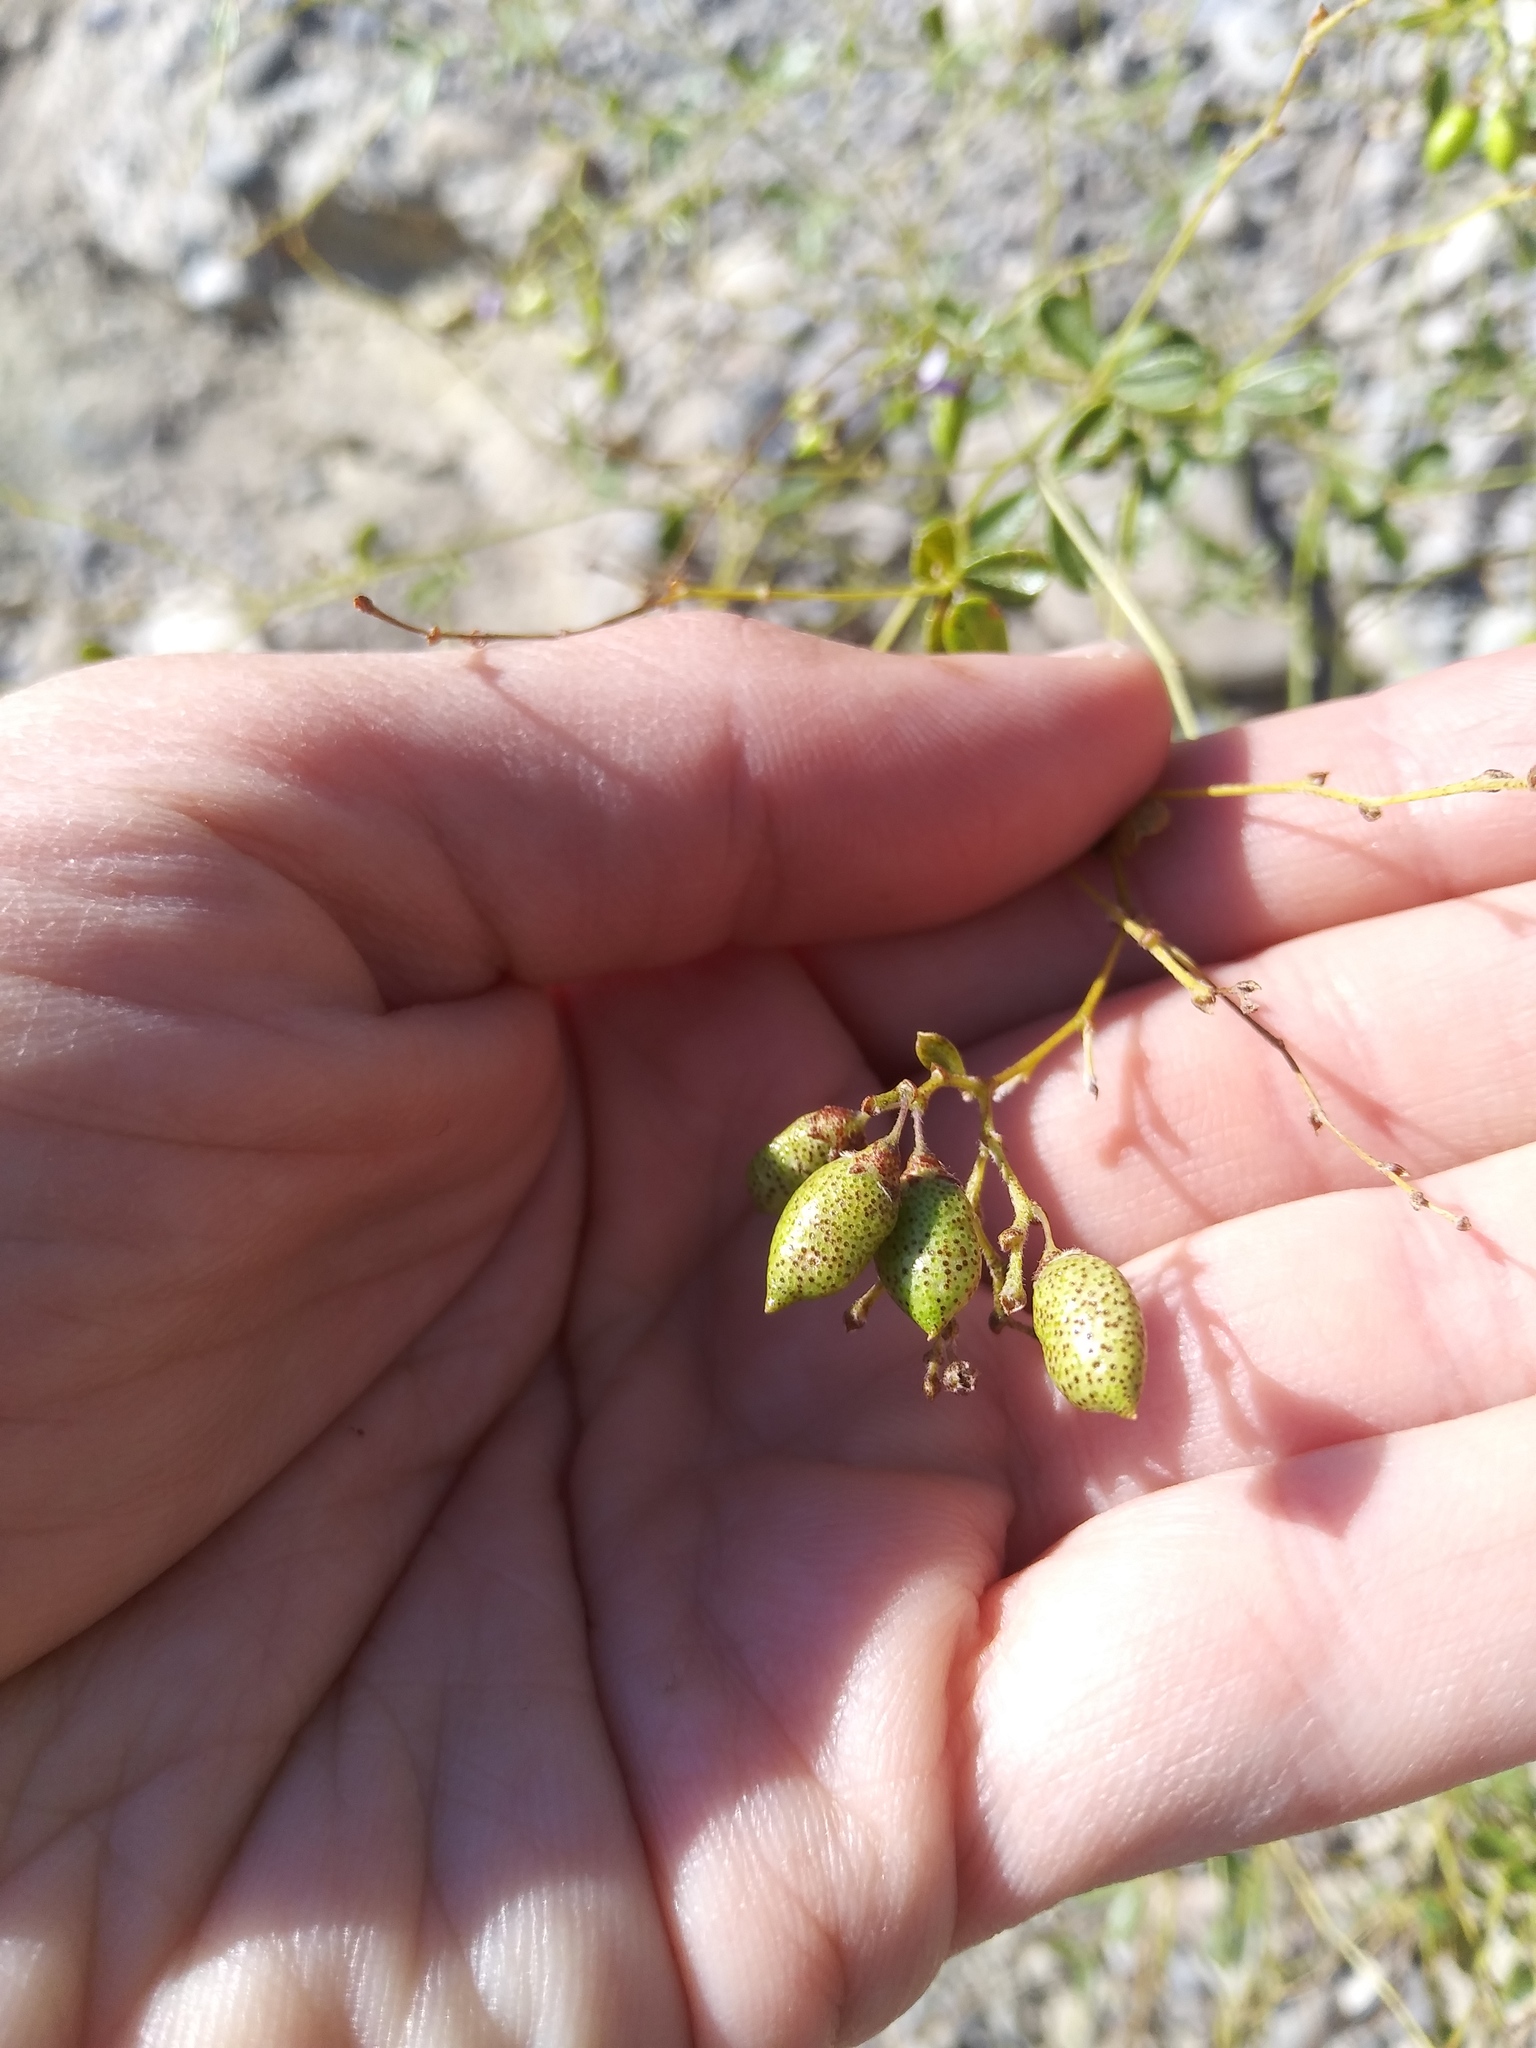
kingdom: Plantae
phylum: Tracheophyta
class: Magnoliopsida
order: Fabales
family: Fabaceae
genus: Pediomelum
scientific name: Pediomelum tenuiflorum
